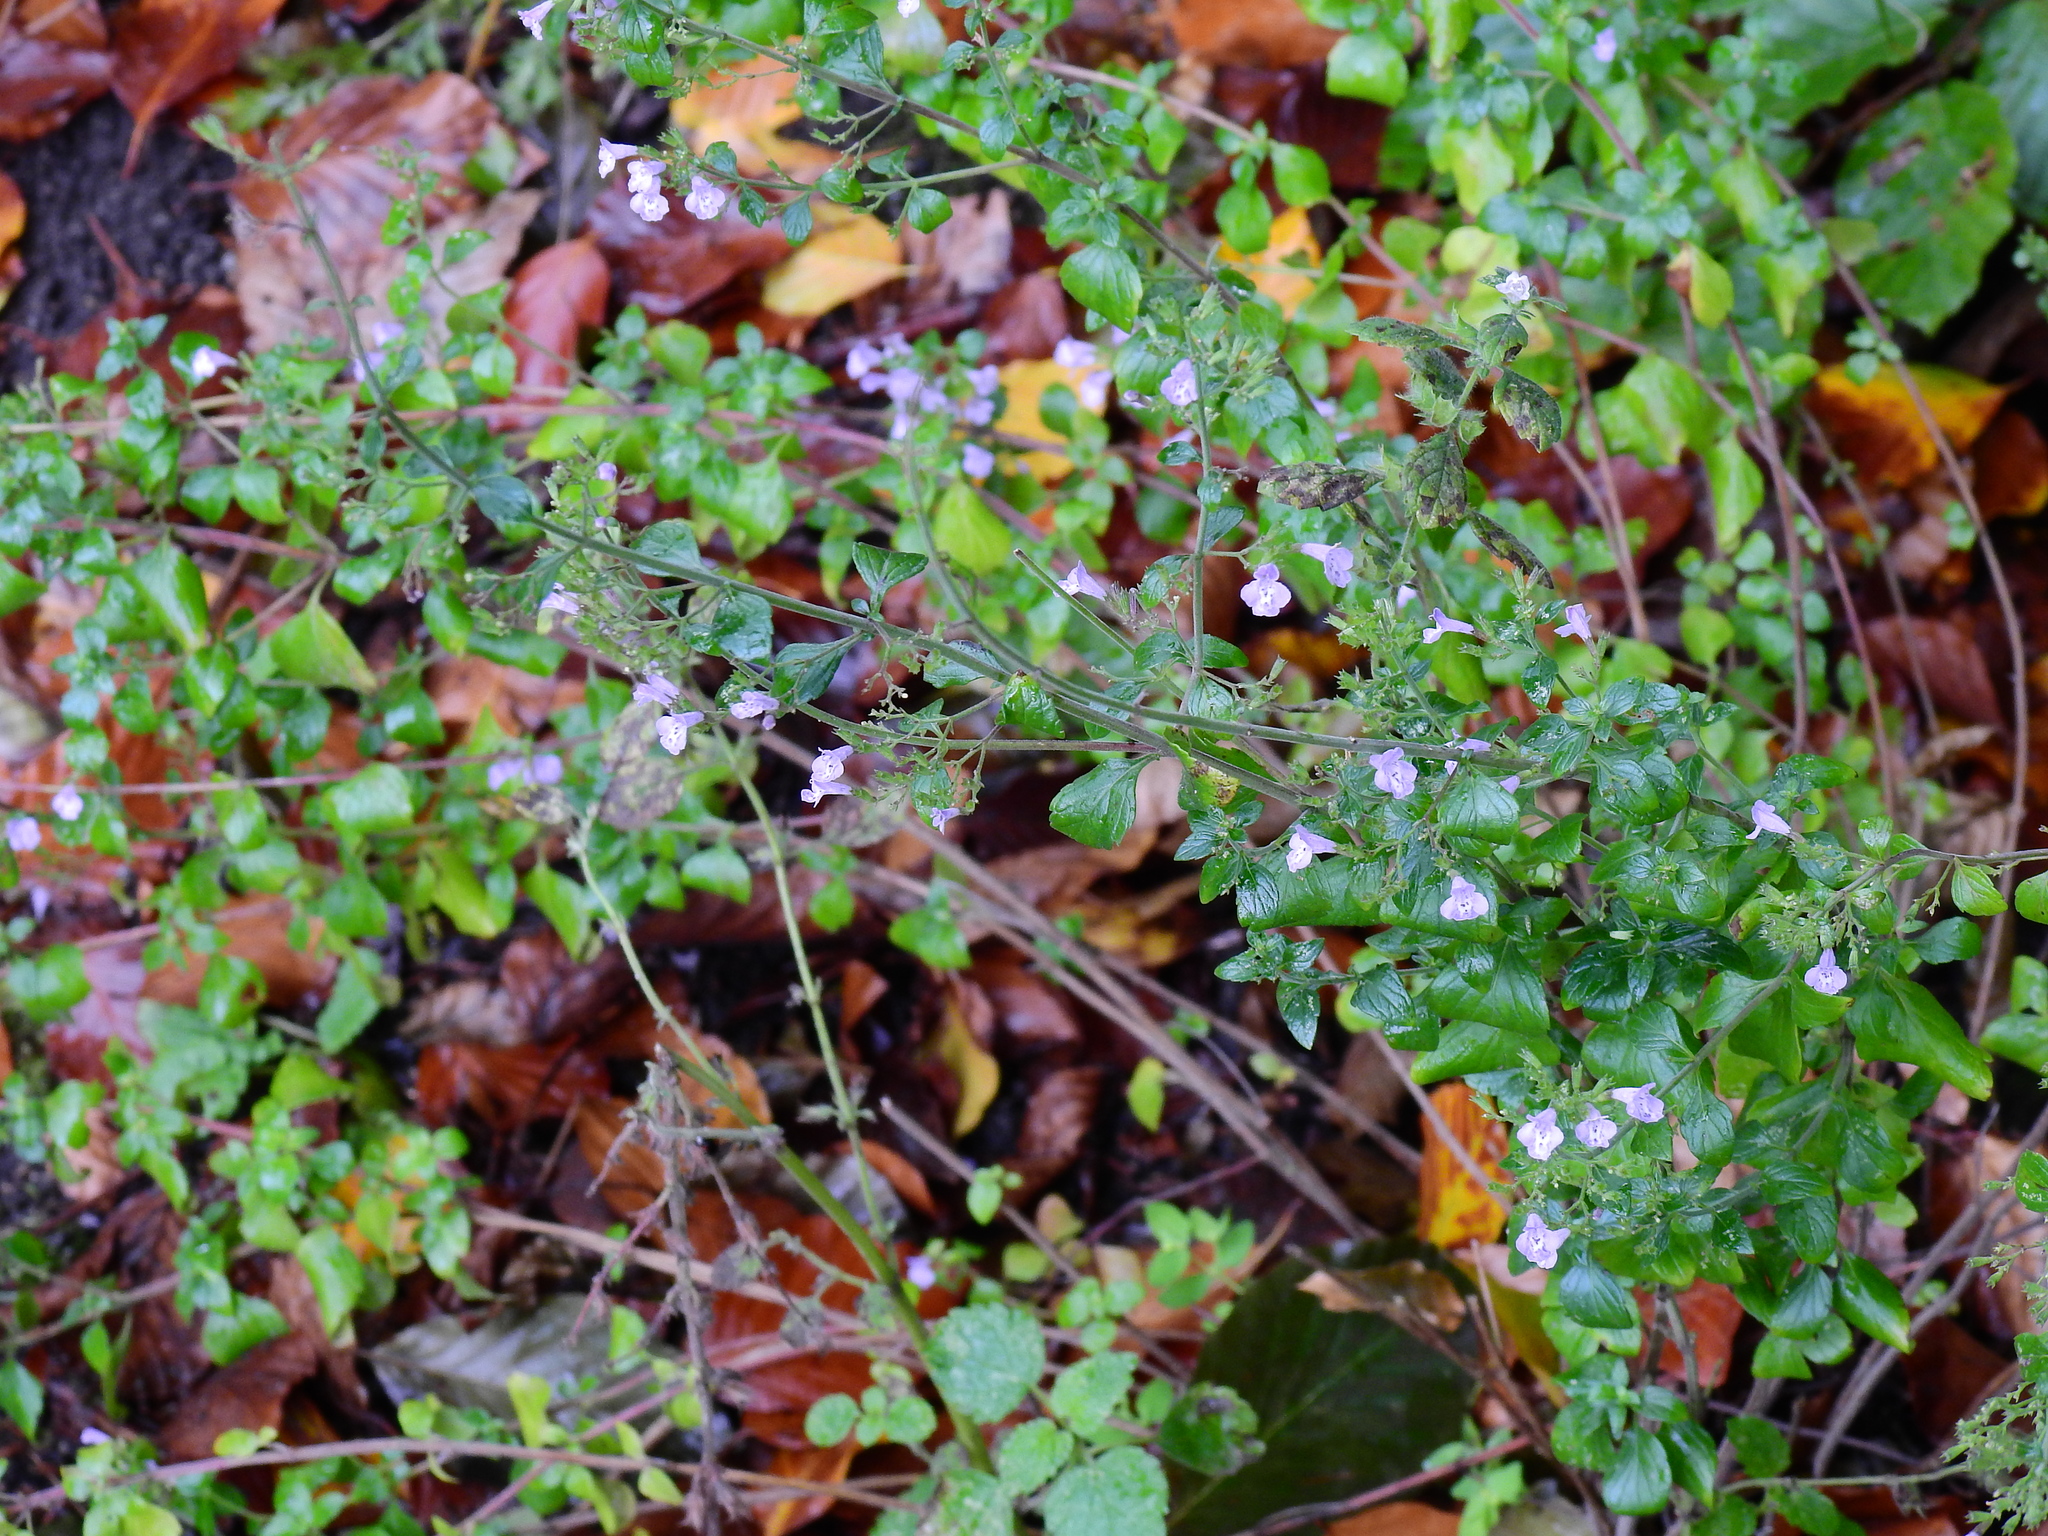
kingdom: Plantae
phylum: Tracheophyta
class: Magnoliopsida
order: Lamiales
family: Lamiaceae
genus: Clinopodium
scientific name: Clinopodium nepeta
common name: Lesser calamint
